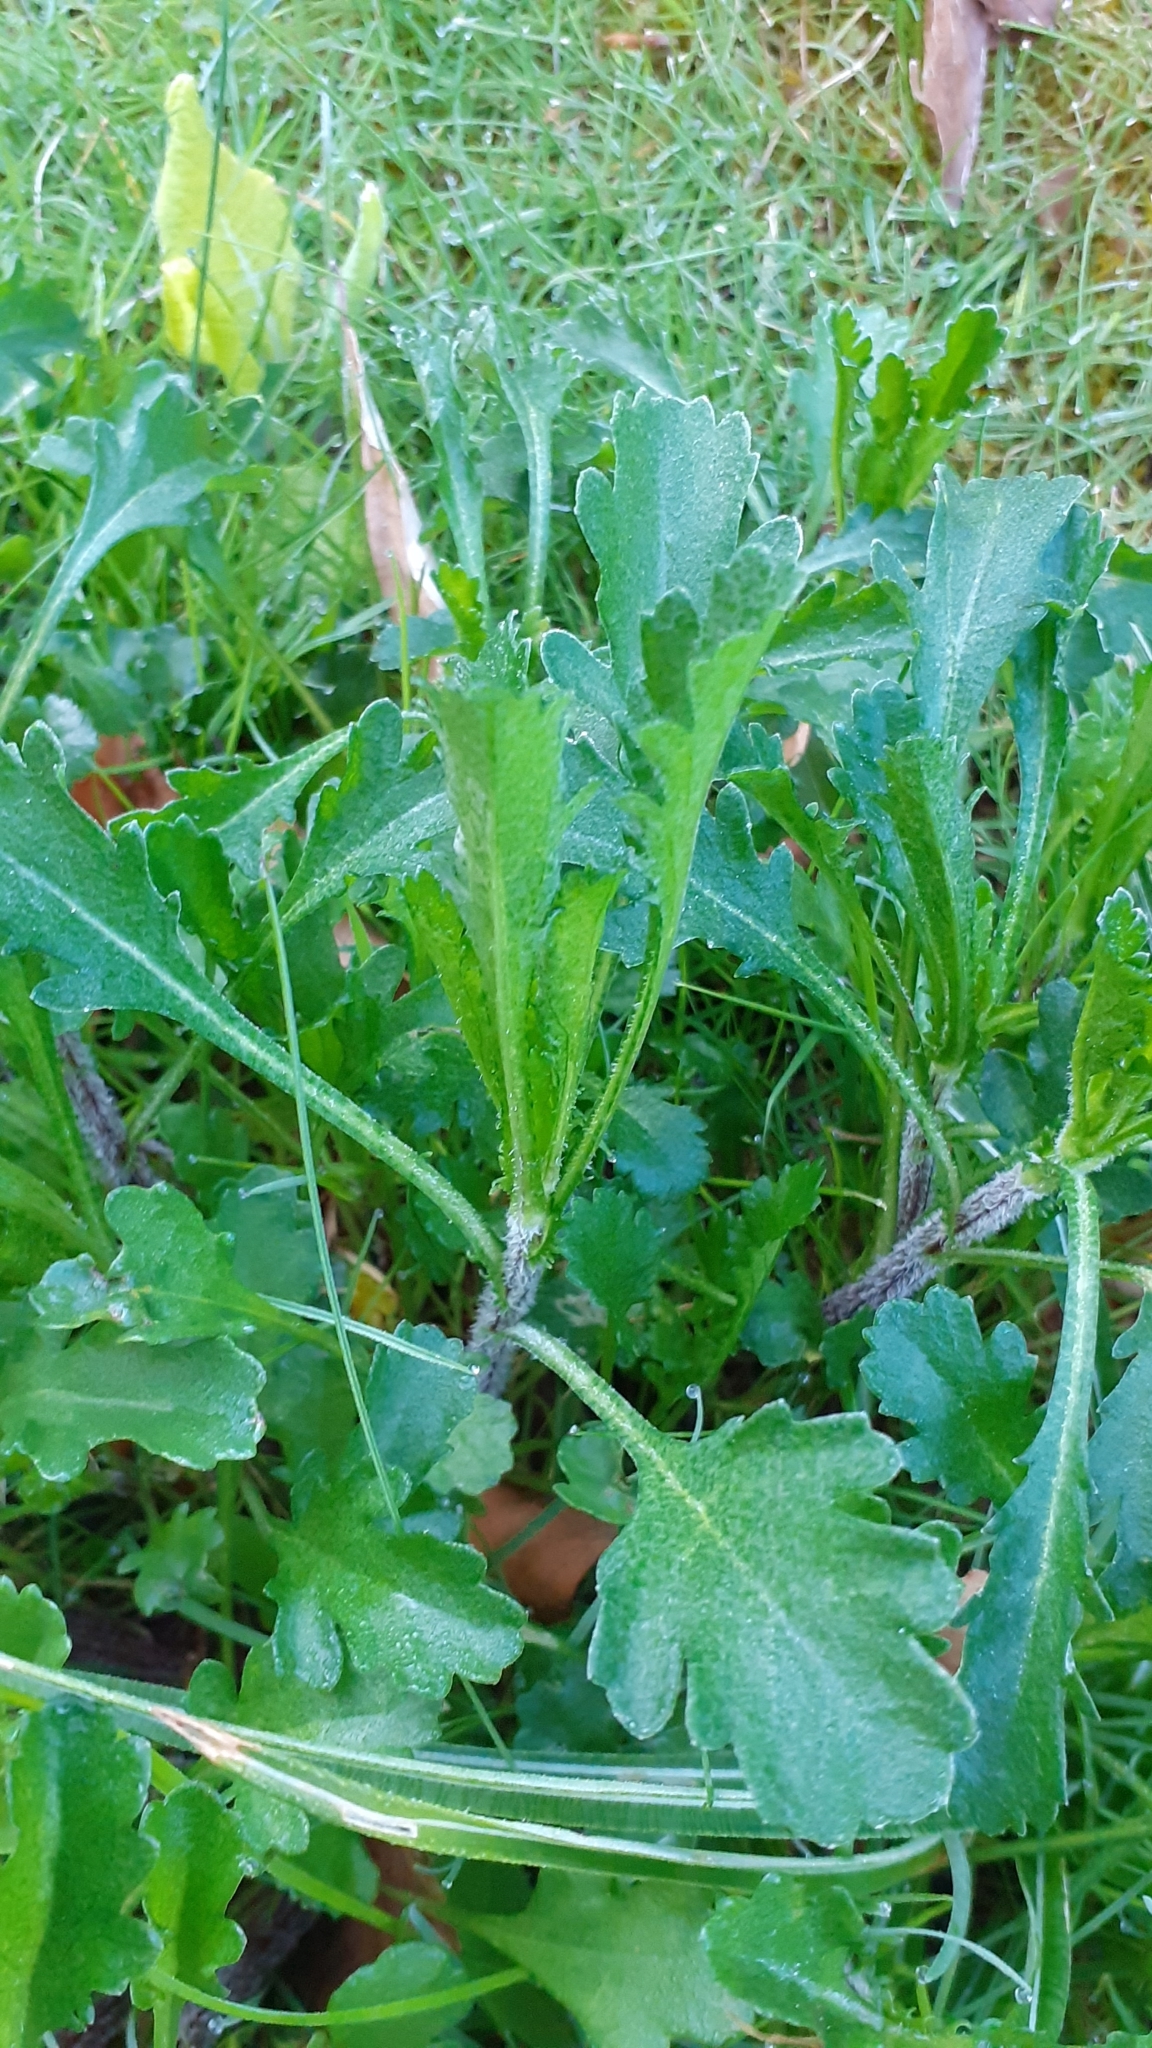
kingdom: Plantae
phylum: Tracheophyta
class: Magnoliopsida
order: Asterales
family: Asteraceae
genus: Leucanthemum
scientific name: Leucanthemum vulgare
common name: Oxeye daisy
